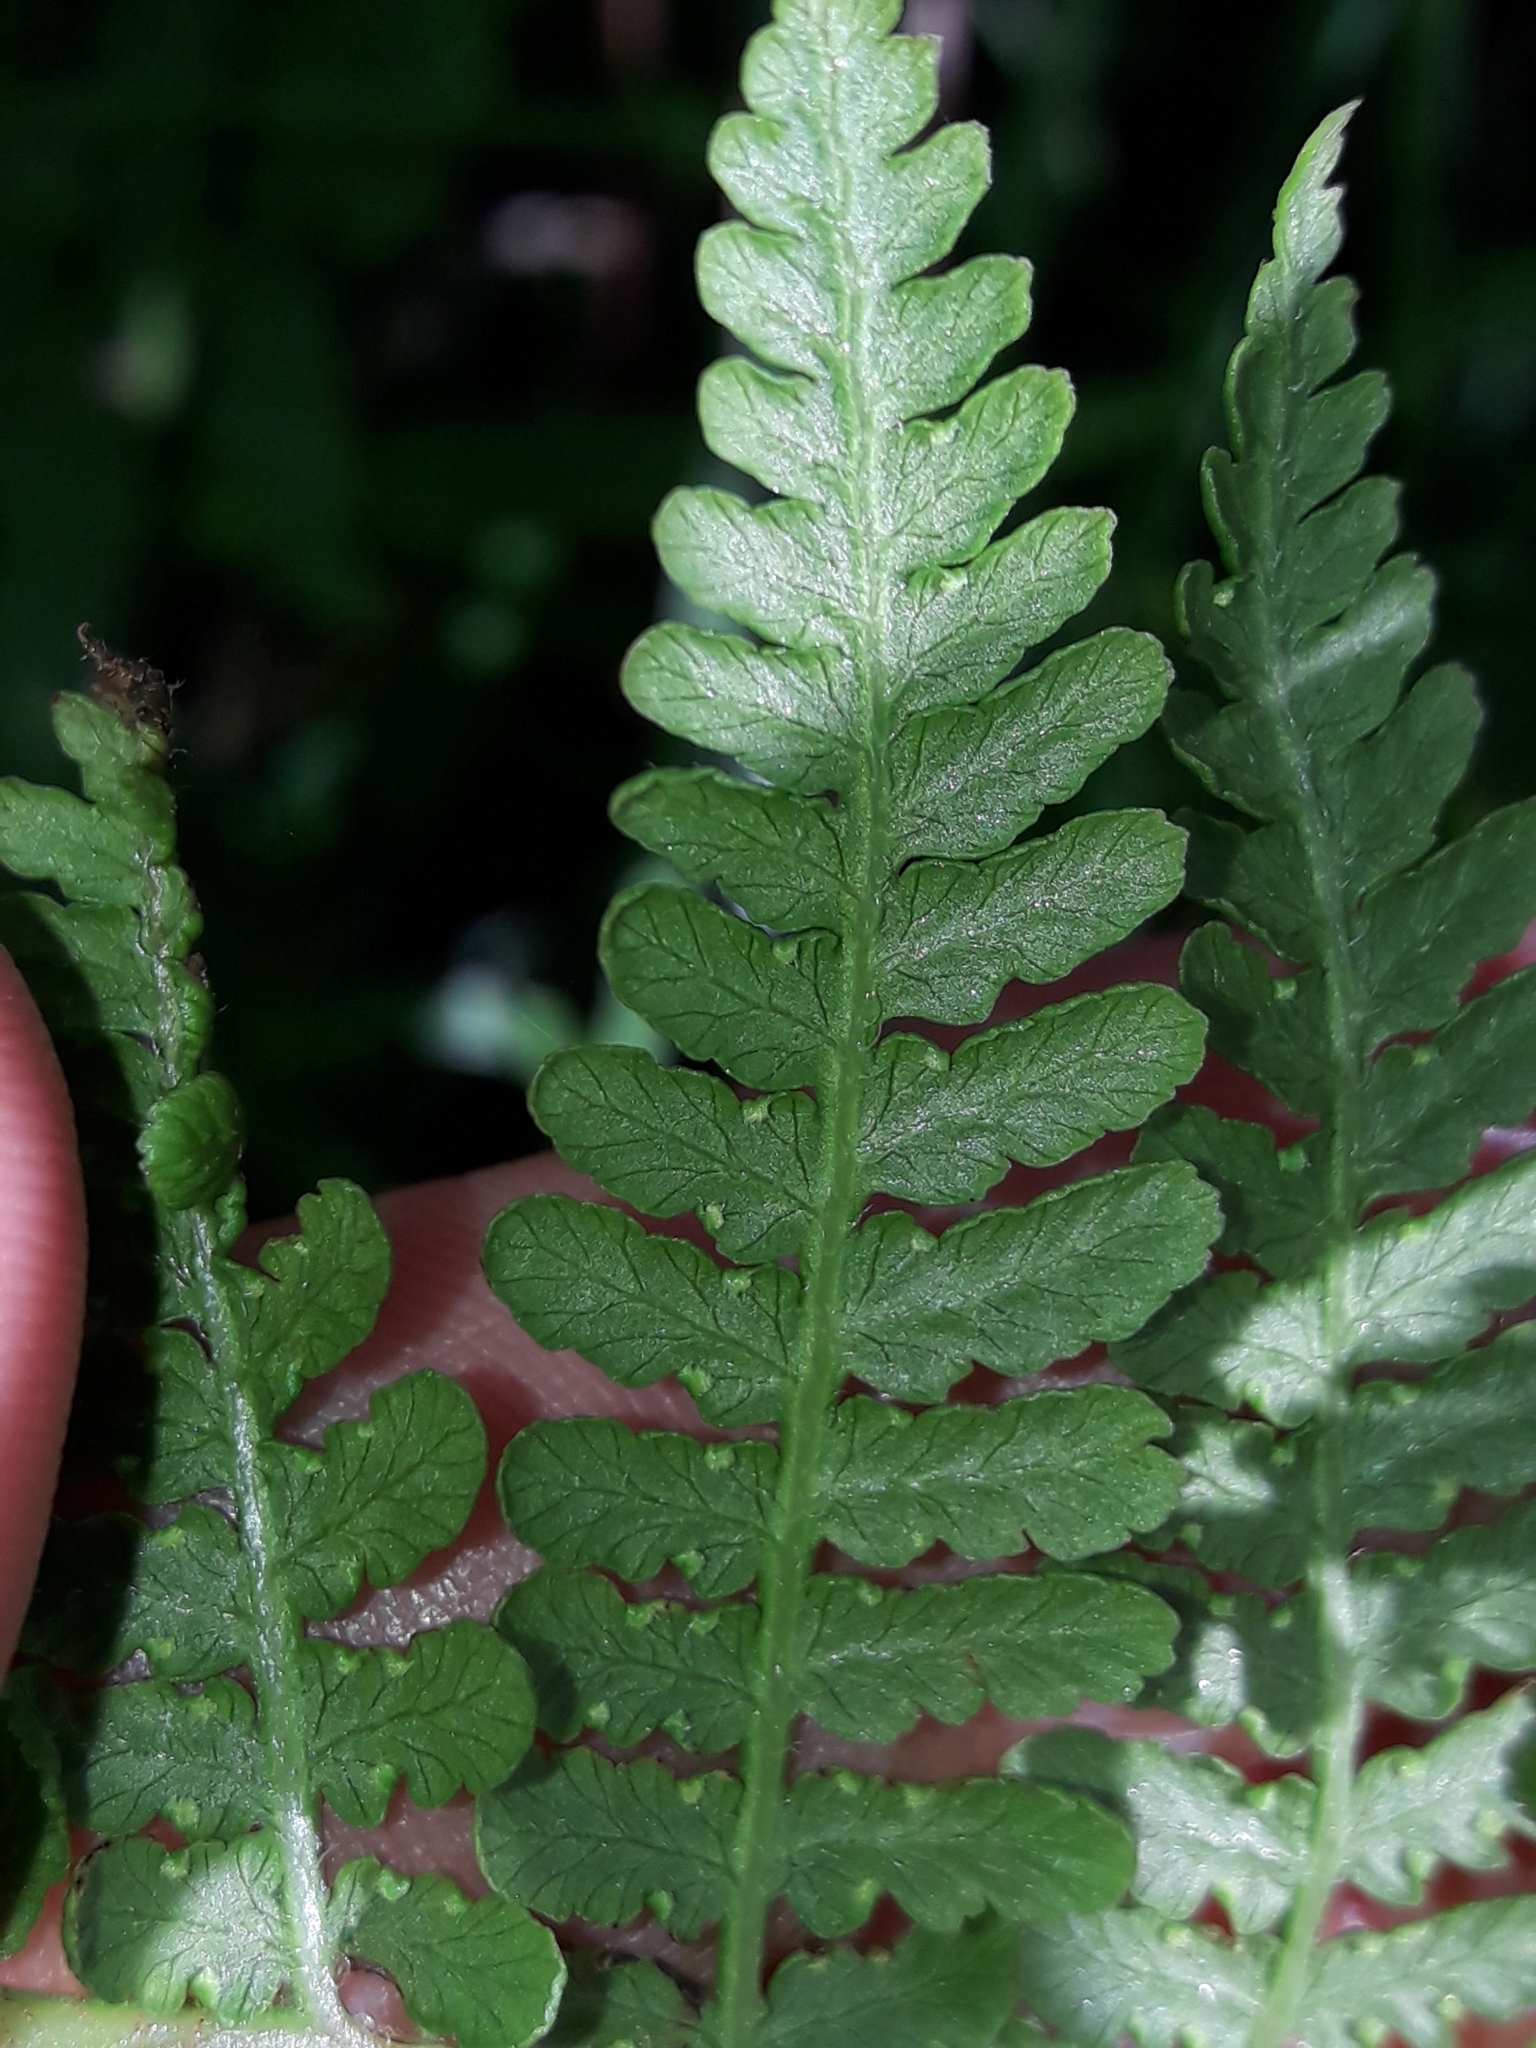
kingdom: Plantae
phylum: Tracheophyta
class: Polypodiopsida
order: Polypodiales
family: Dennstaedtiaceae
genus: Hypolepis
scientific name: Hypolepis ambigua
